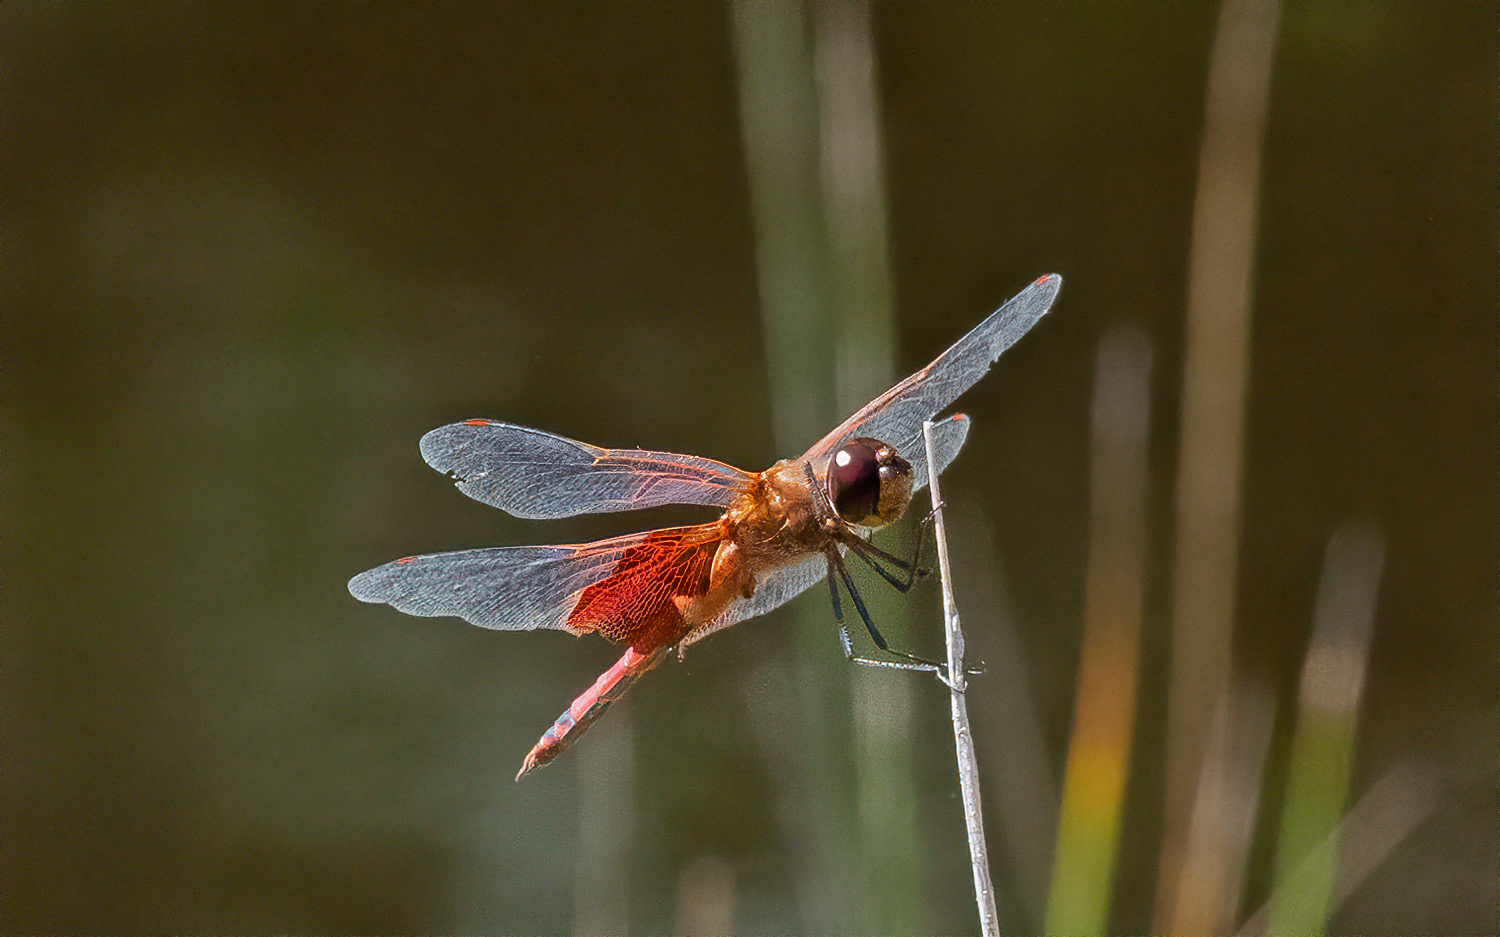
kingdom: Animalia
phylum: Arthropoda
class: Insecta
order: Odonata
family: Libellulidae
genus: Tramea
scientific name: Tramea carolina
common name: Carolina saddlebags
